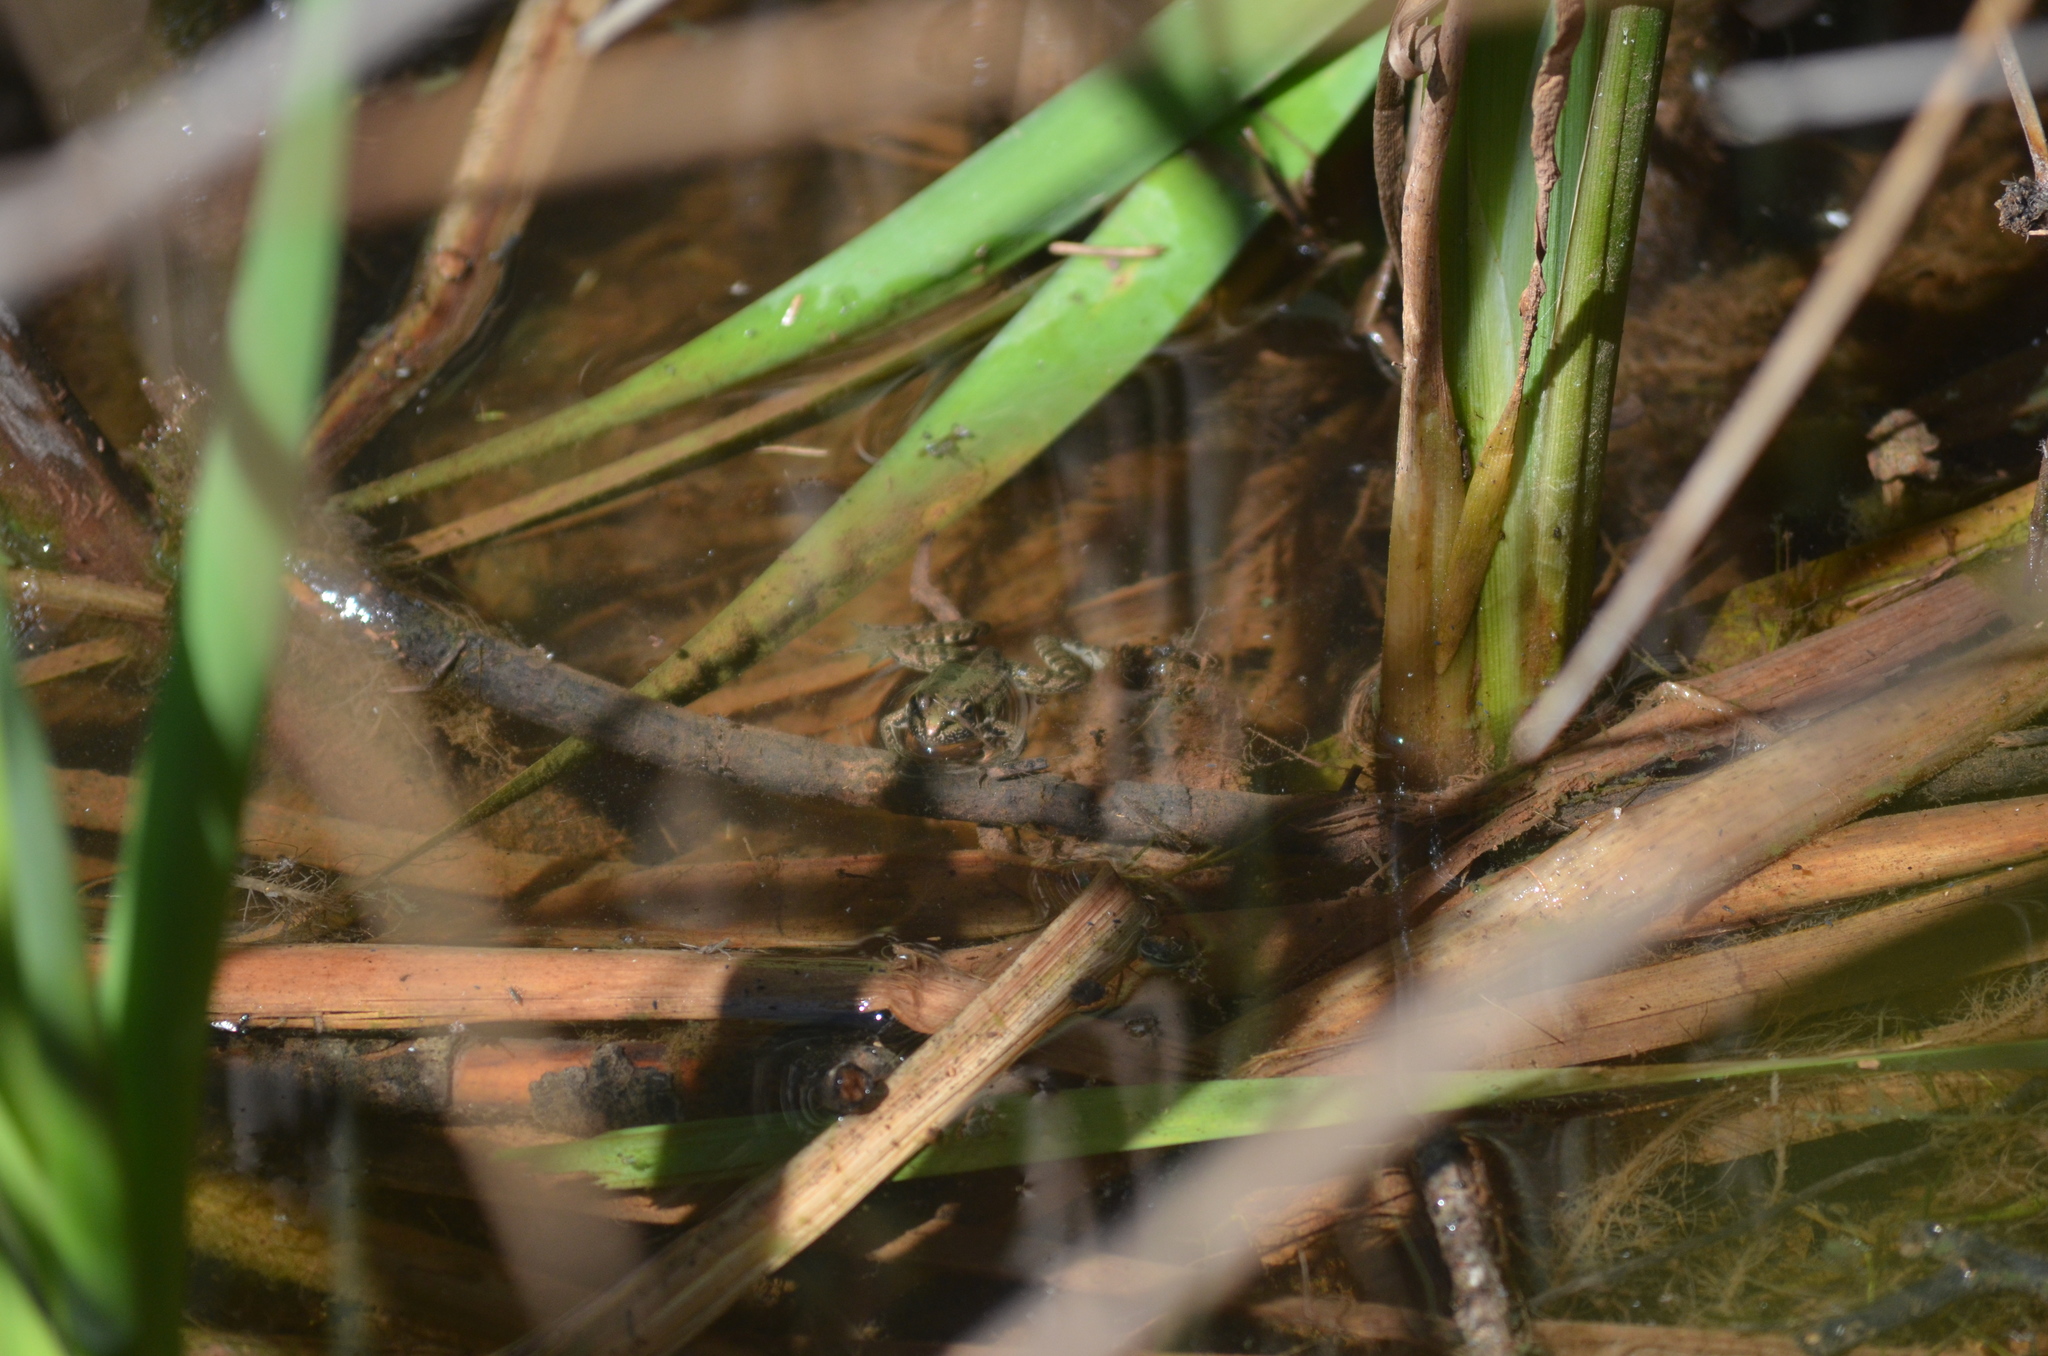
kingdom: Animalia
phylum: Chordata
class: Amphibia
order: Anura
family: Ranidae
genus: Pelophylax
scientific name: Pelophylax perezi
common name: Perez's frog
